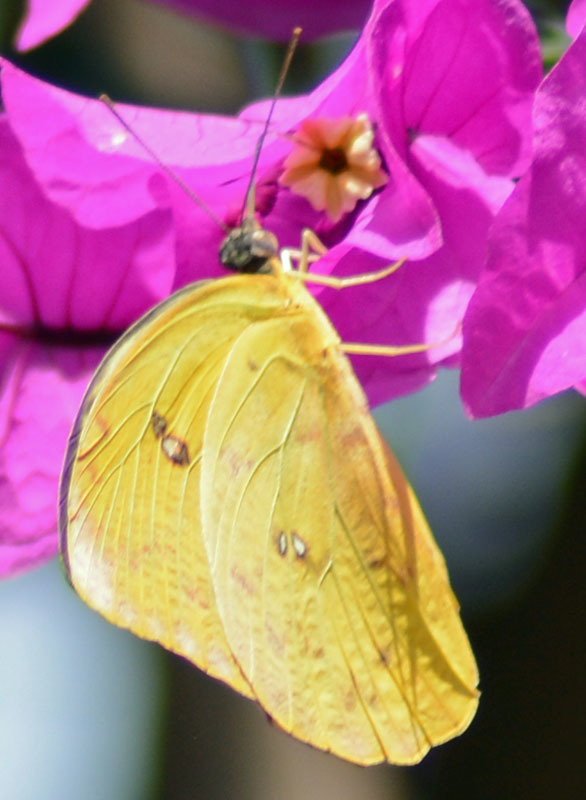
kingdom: Animalia
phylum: Arthropoda
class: Insecta
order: Lepidoptera
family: Pieridae
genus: Phoebis
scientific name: Phoebis philea
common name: Orange-barred giant sulphur
